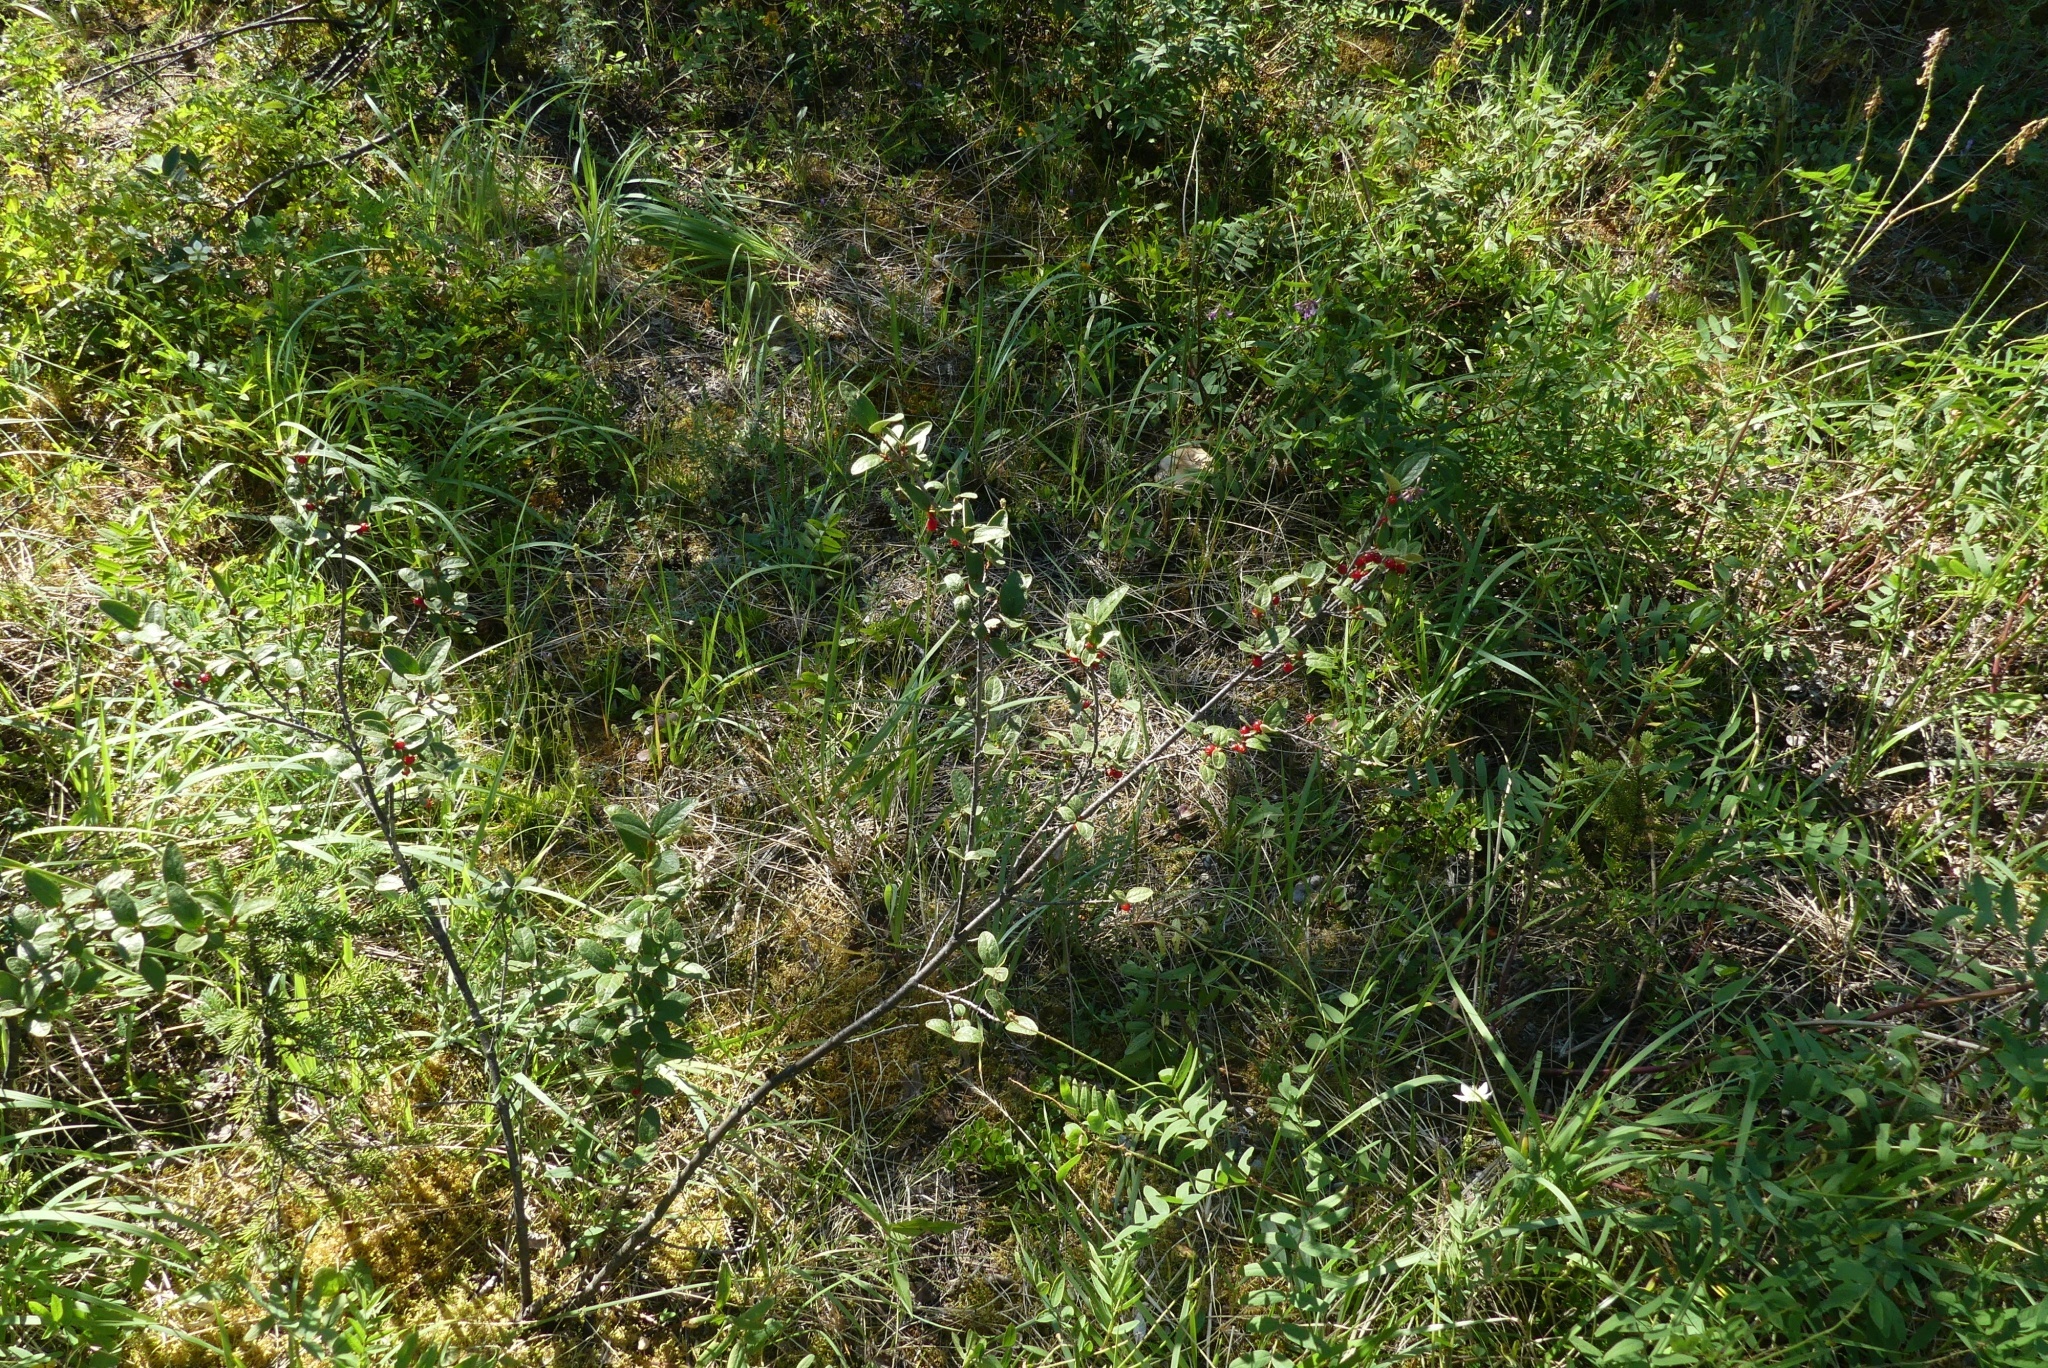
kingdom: Plantae
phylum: Tracheophyta
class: Magnoliopsida
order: Rosales
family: Elaeagnaceae
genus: Shepherdia
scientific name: Shepherdia canadensis
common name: Soapberry
